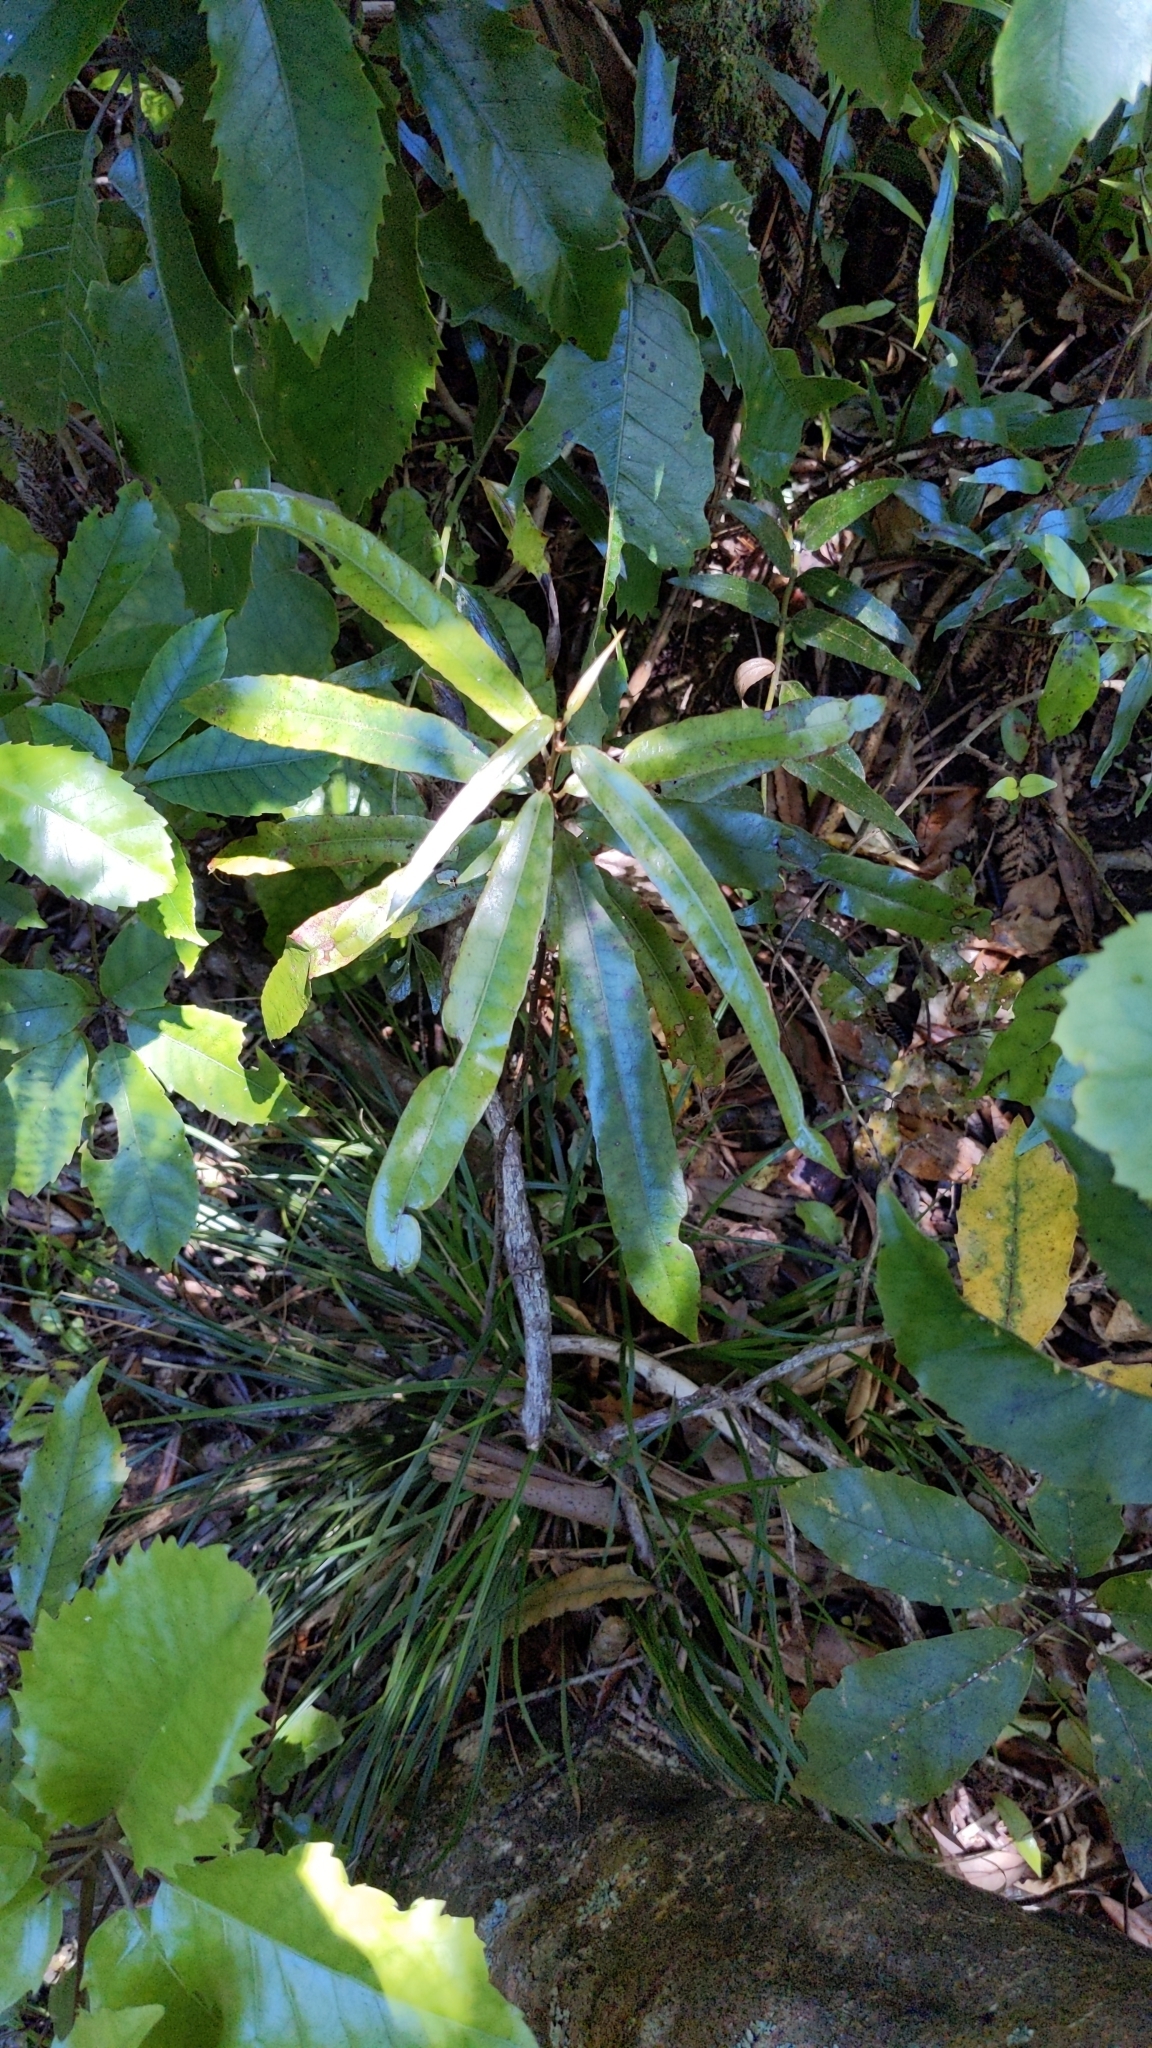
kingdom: Plantae
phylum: Tracheophyta
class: Magnoliopsida
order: Oxalidales
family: Elaeocarpaceae
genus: Elaeocarpus
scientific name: Elaeocarpus dentatus
